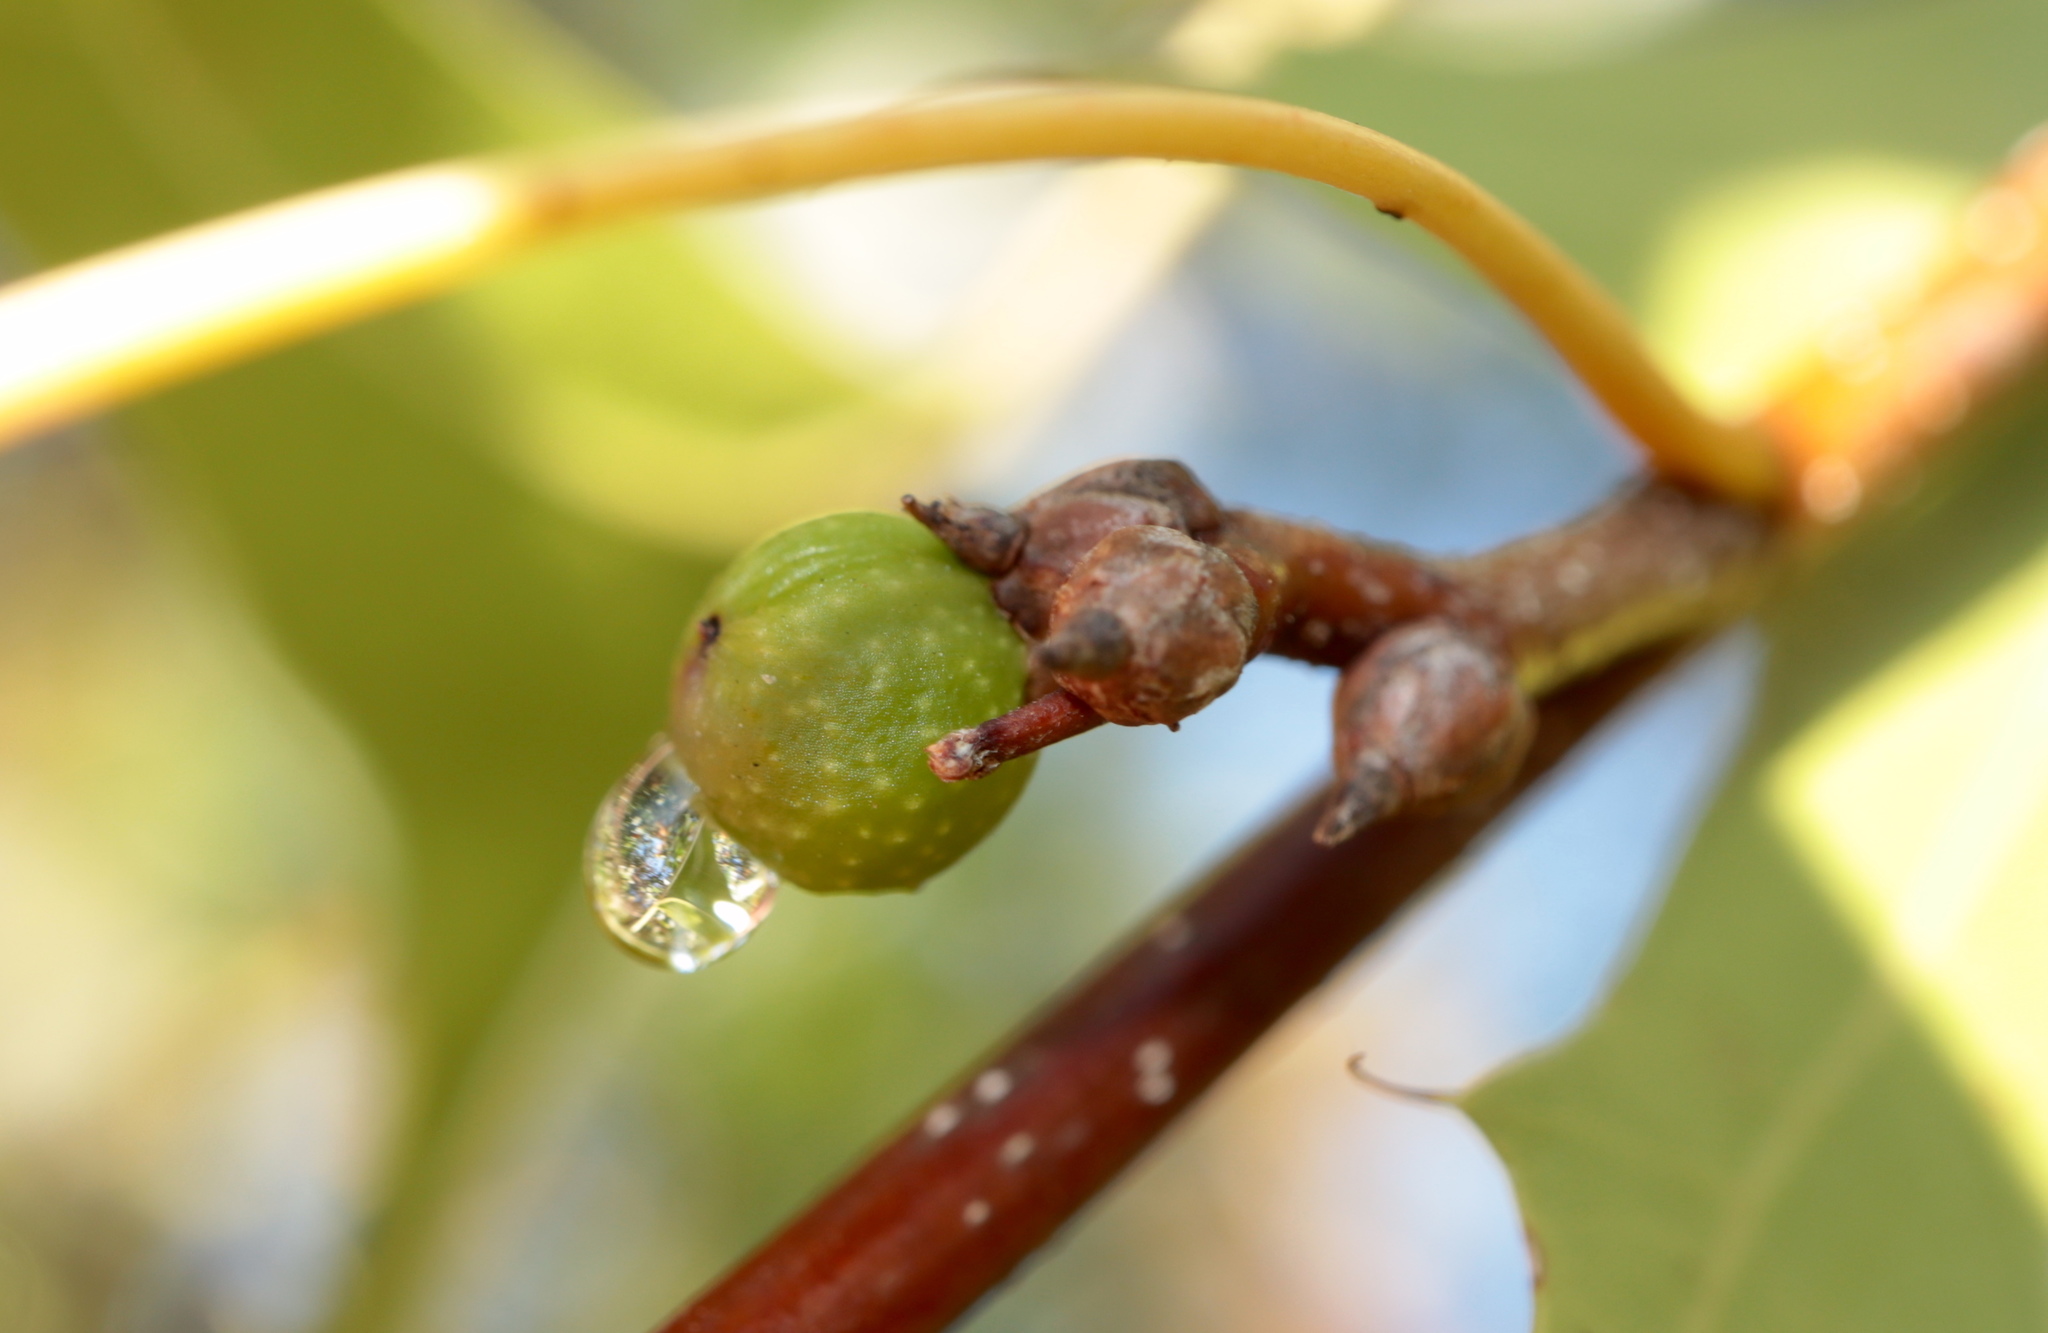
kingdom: Animalia
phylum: Arthropoda
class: Insecta
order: Hymenoptera
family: Cynipidae
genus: Callirhytis
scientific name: Callirhytis
